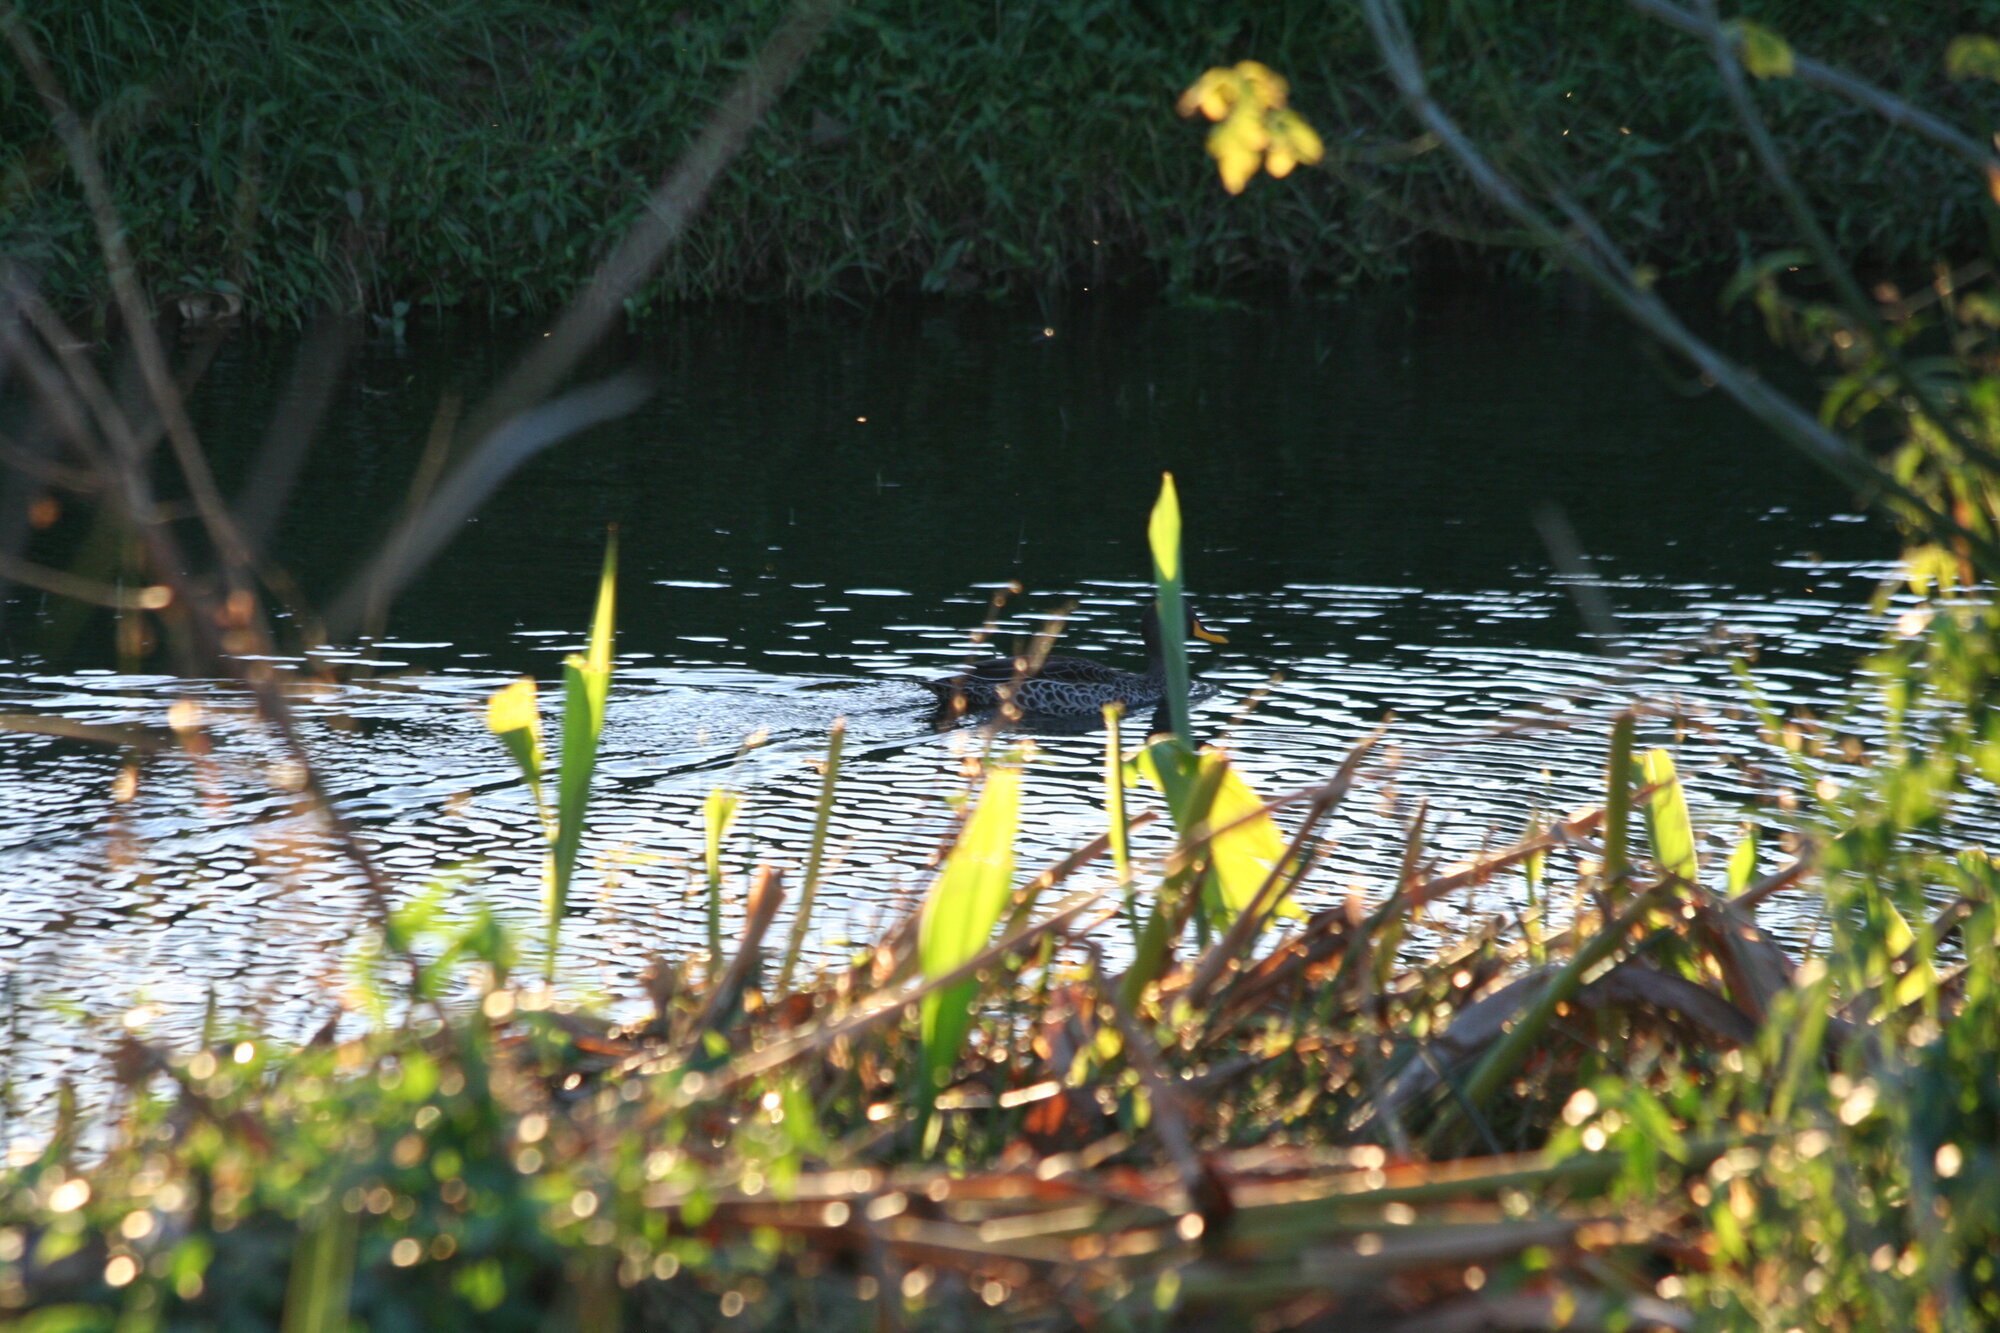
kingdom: Animalia
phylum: Chordata
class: Aves
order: Anseriformes
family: Anatidae
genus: Anas
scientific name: Anas undulata
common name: Yellow-billed duck
